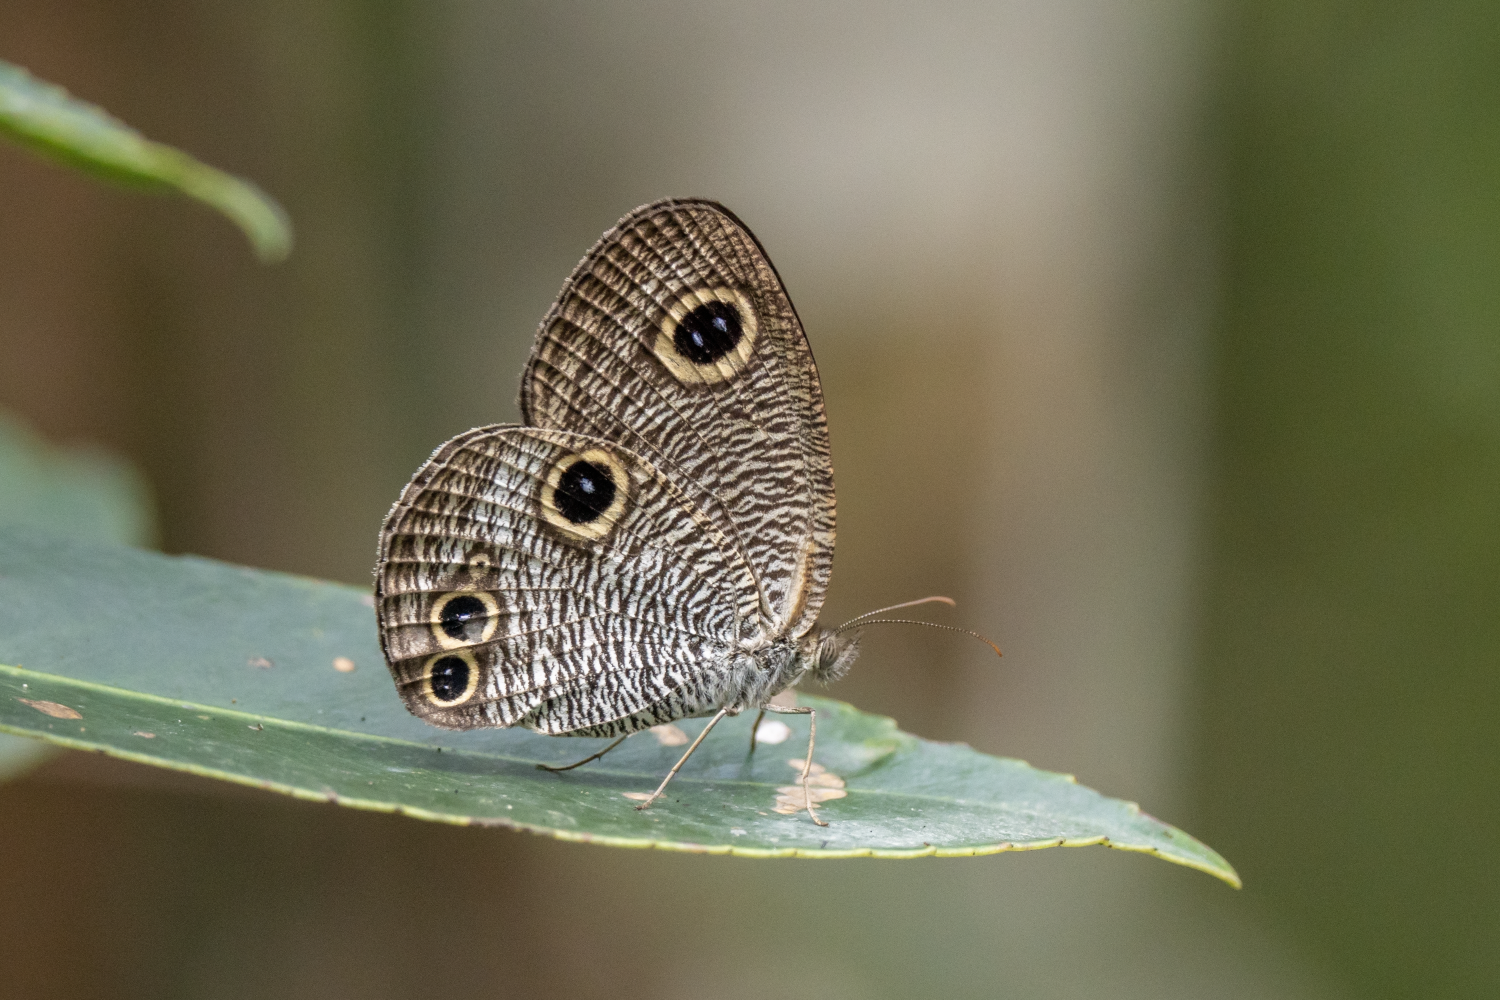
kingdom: Animalia
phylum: Arthropoda
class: Insecta
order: Lepidoptera
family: Nymphalidae
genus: Ypthima
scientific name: Ypthima praenubila
